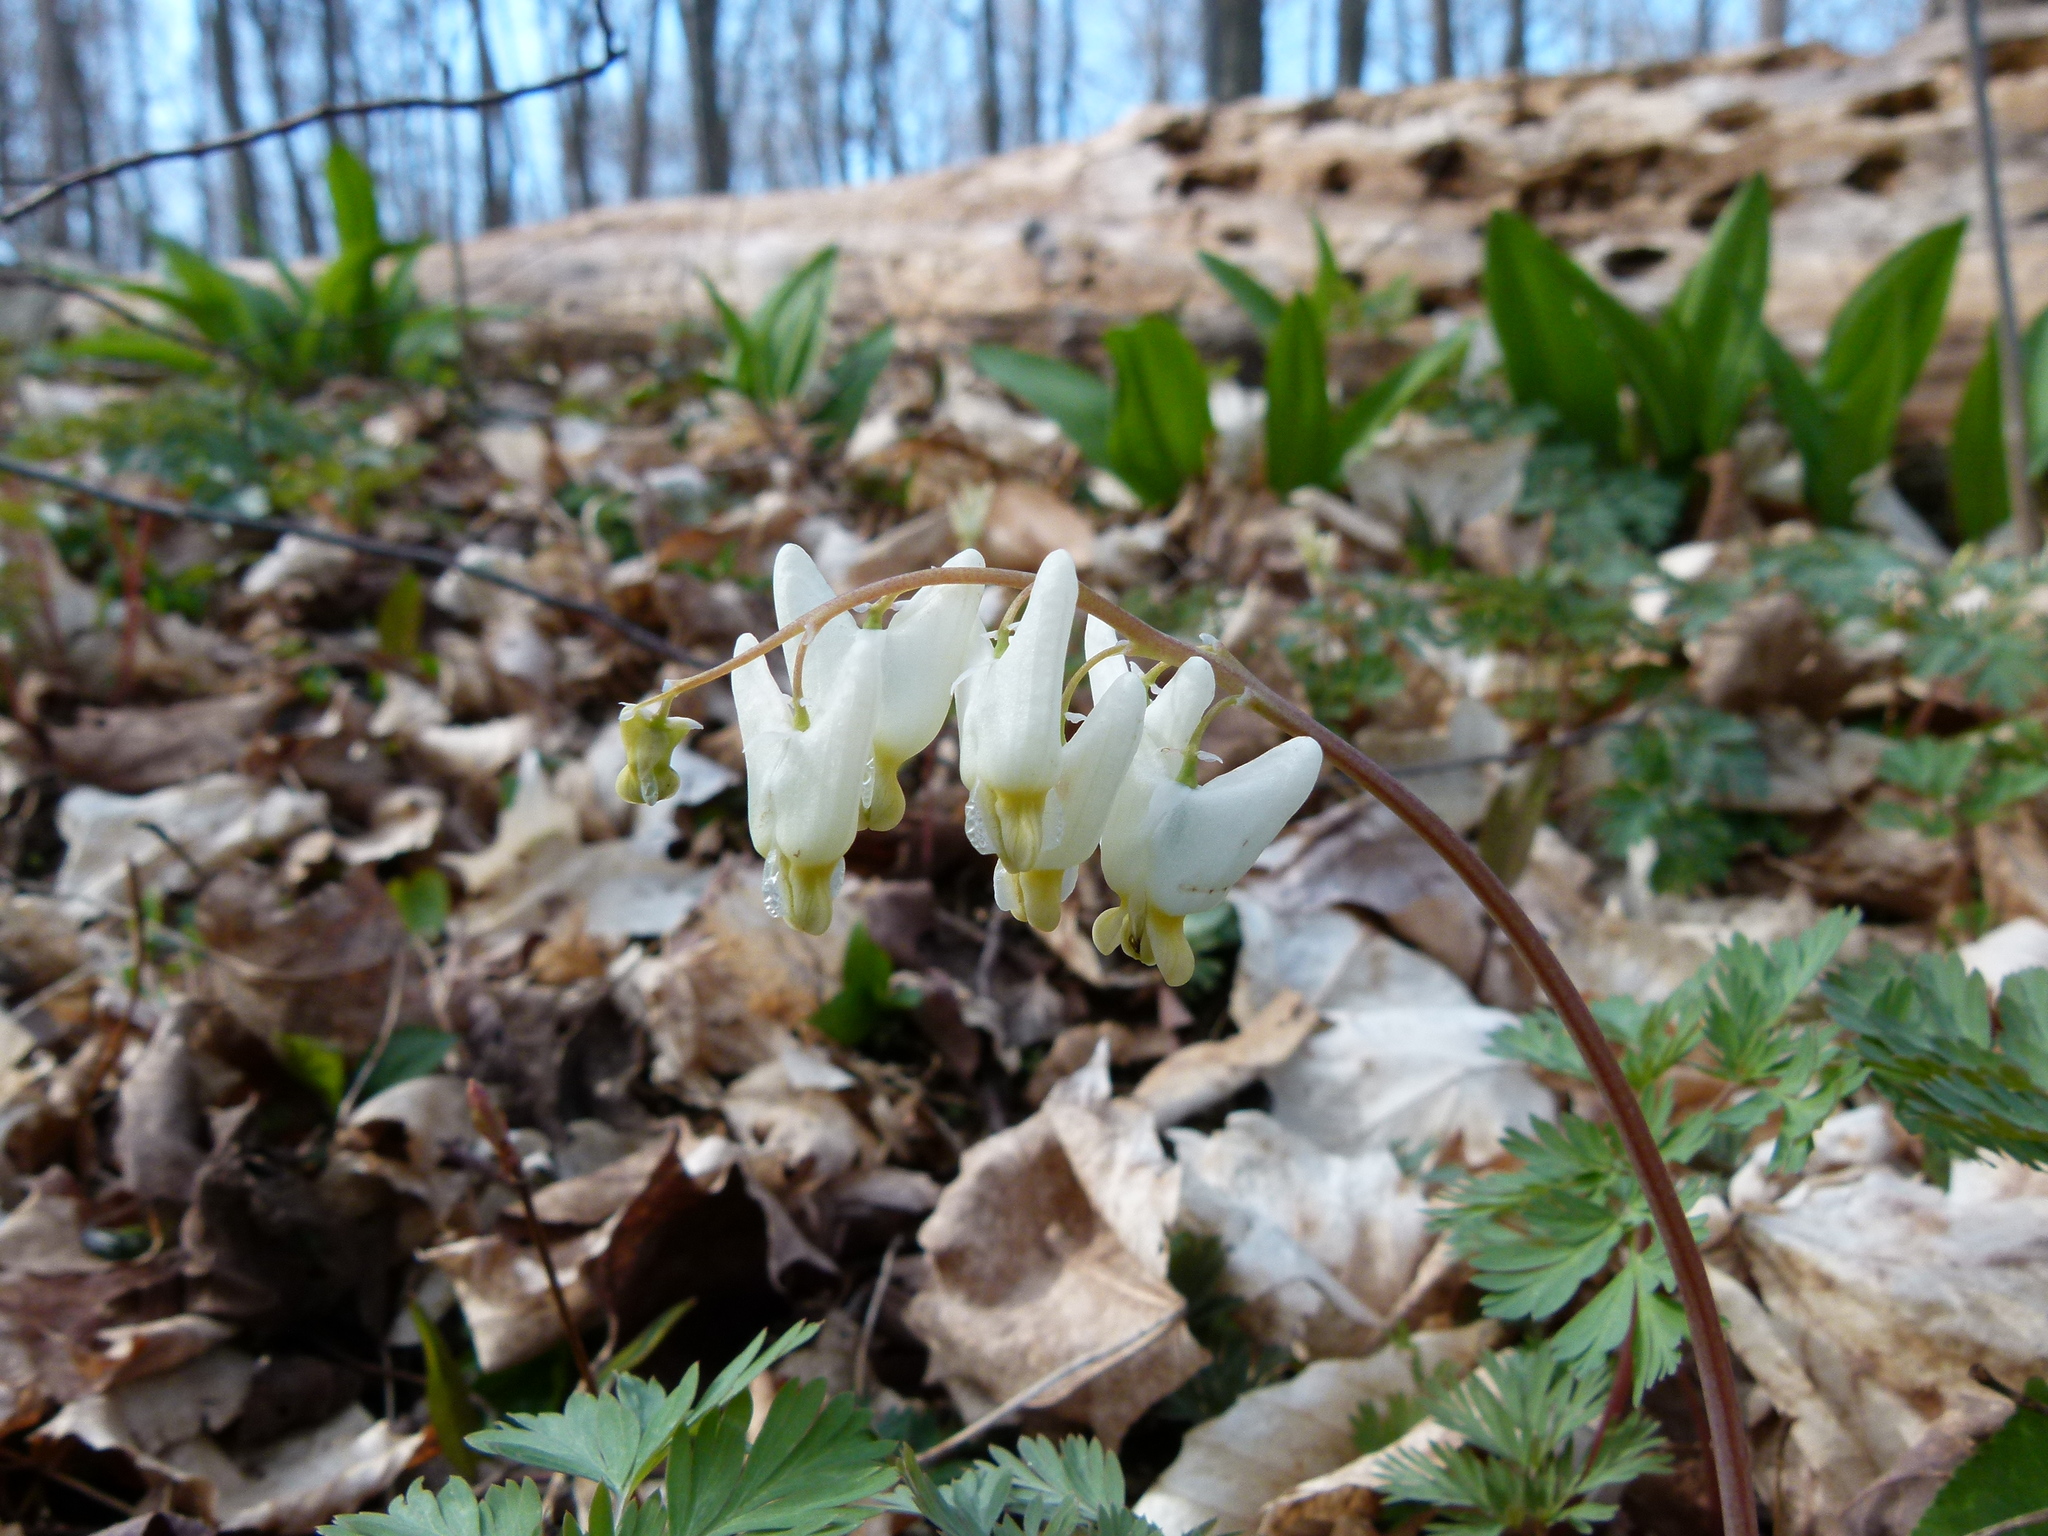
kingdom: Plantae
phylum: Tracheophyta
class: Magnoliopsida
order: Ranunculales
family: Papaveraceae
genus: Dicentra
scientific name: Dicentra cucullaria
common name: Dutchman's breeches
